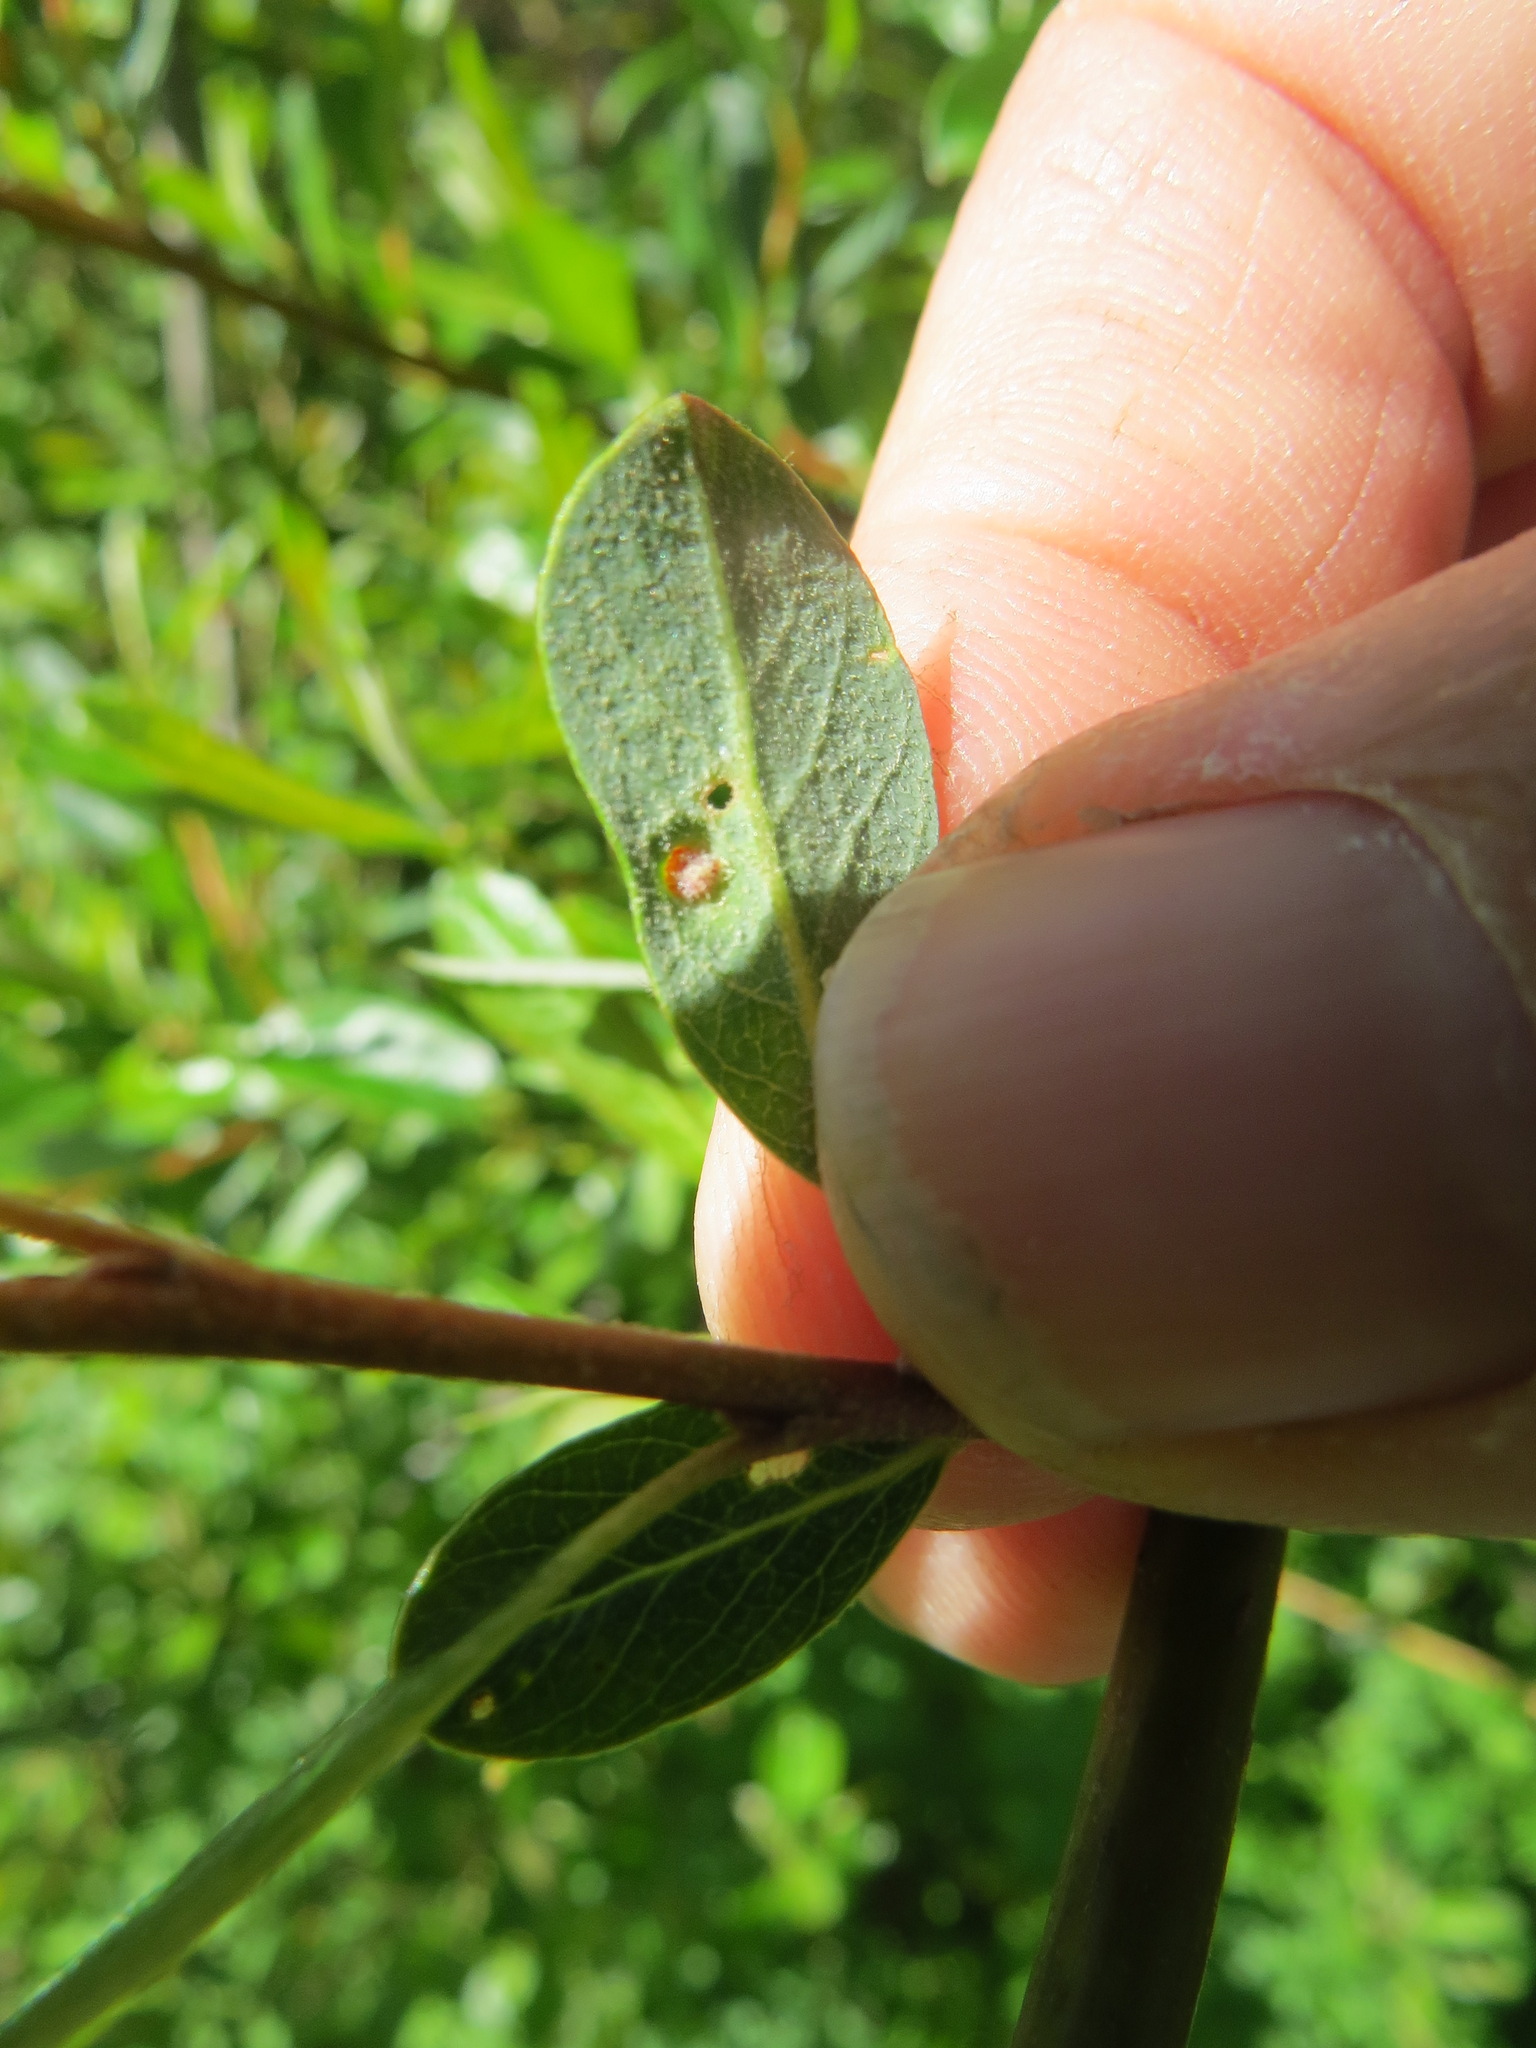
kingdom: Animalia
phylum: Arthropoda
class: Arachnida
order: Trombidiformes
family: Eriophyidae
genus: Aculus
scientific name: Aculus tetanothrix
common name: Willow bead gall mite
